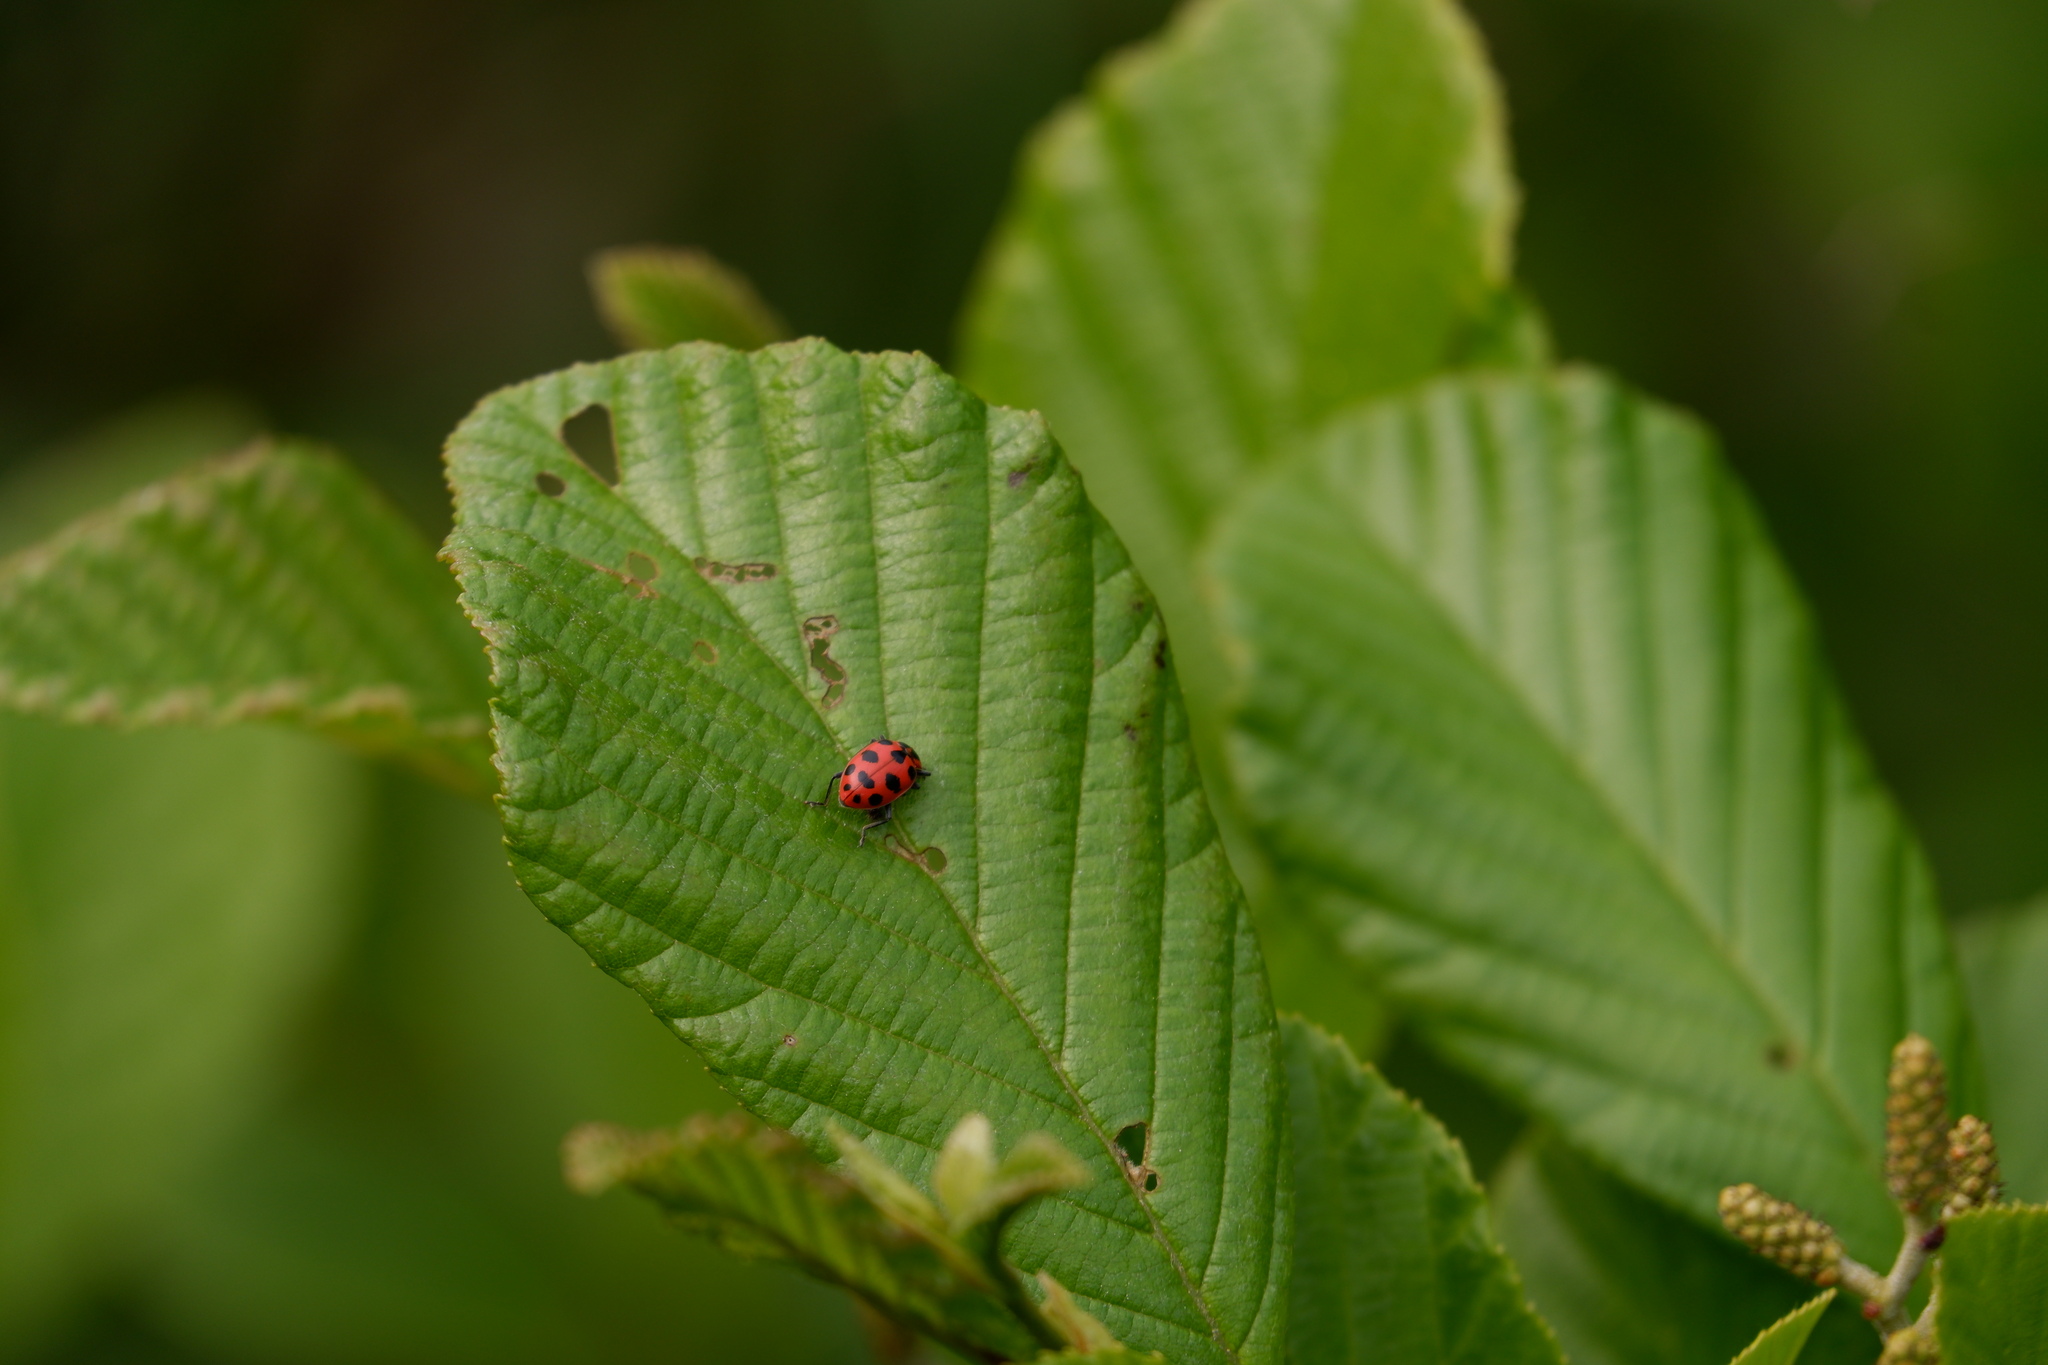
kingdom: Animalia
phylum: Arthropoda
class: Insecta
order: Coleoptera
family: Coccinellidae
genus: Coleomegilla
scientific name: Coleomegilla maculata
